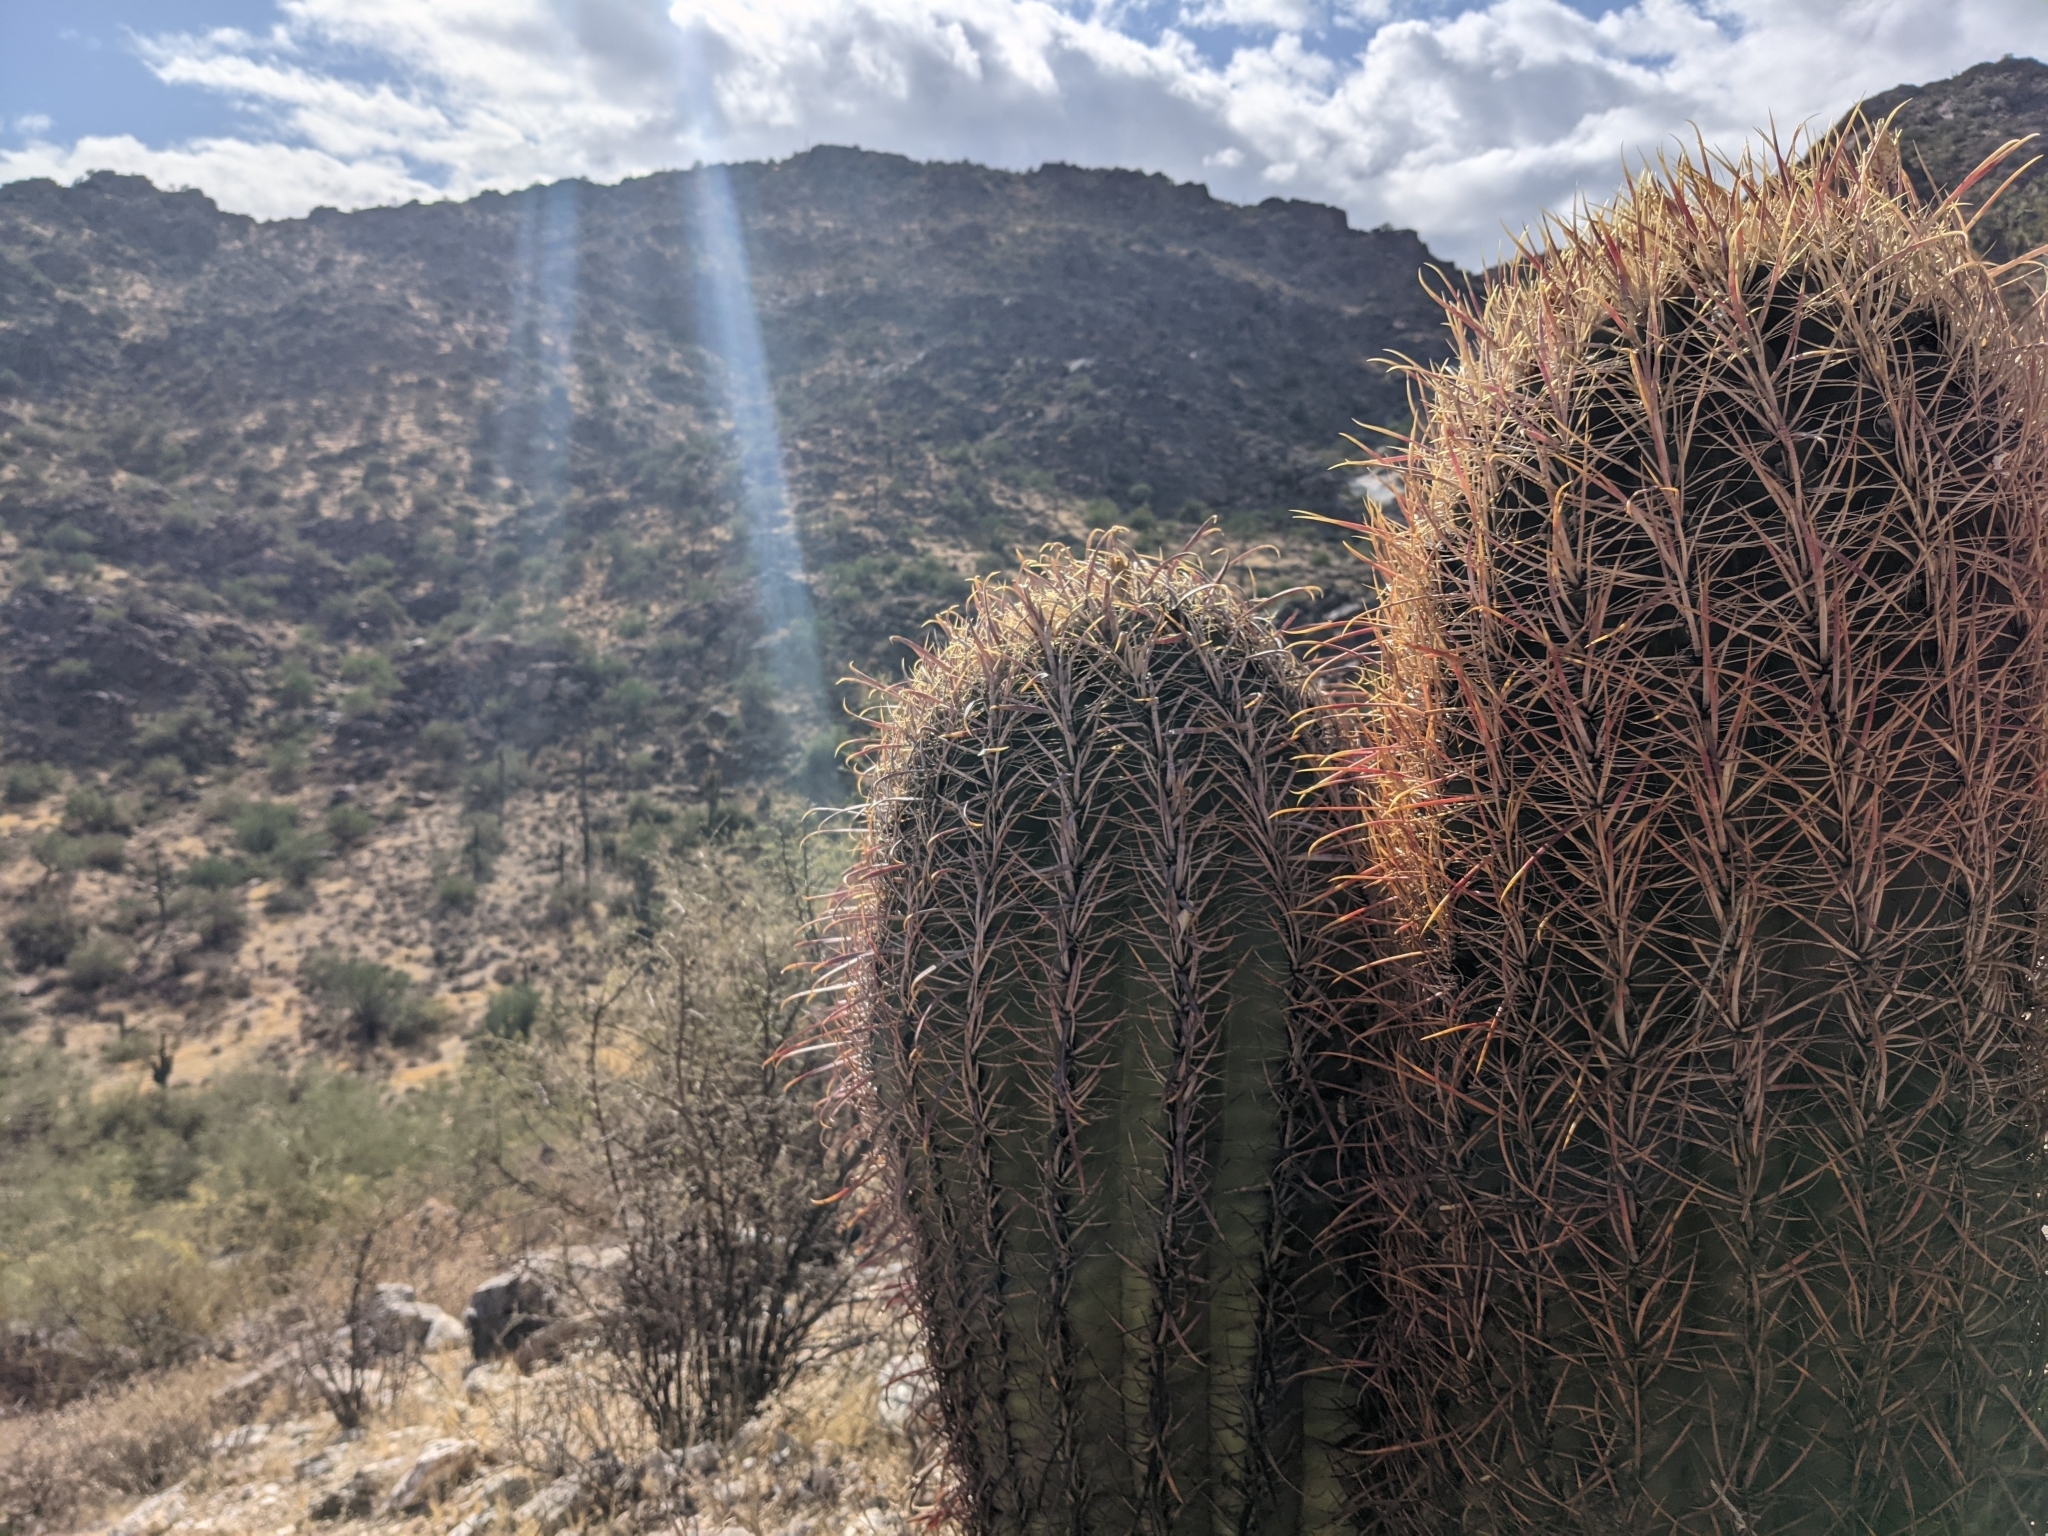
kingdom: Plantae
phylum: Tracheophyta
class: Magnoliopsida
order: Caryophyllales
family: Cactaceae
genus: Ferocactus
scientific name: Ferocactus cylindraceus
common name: California barrel cactus
